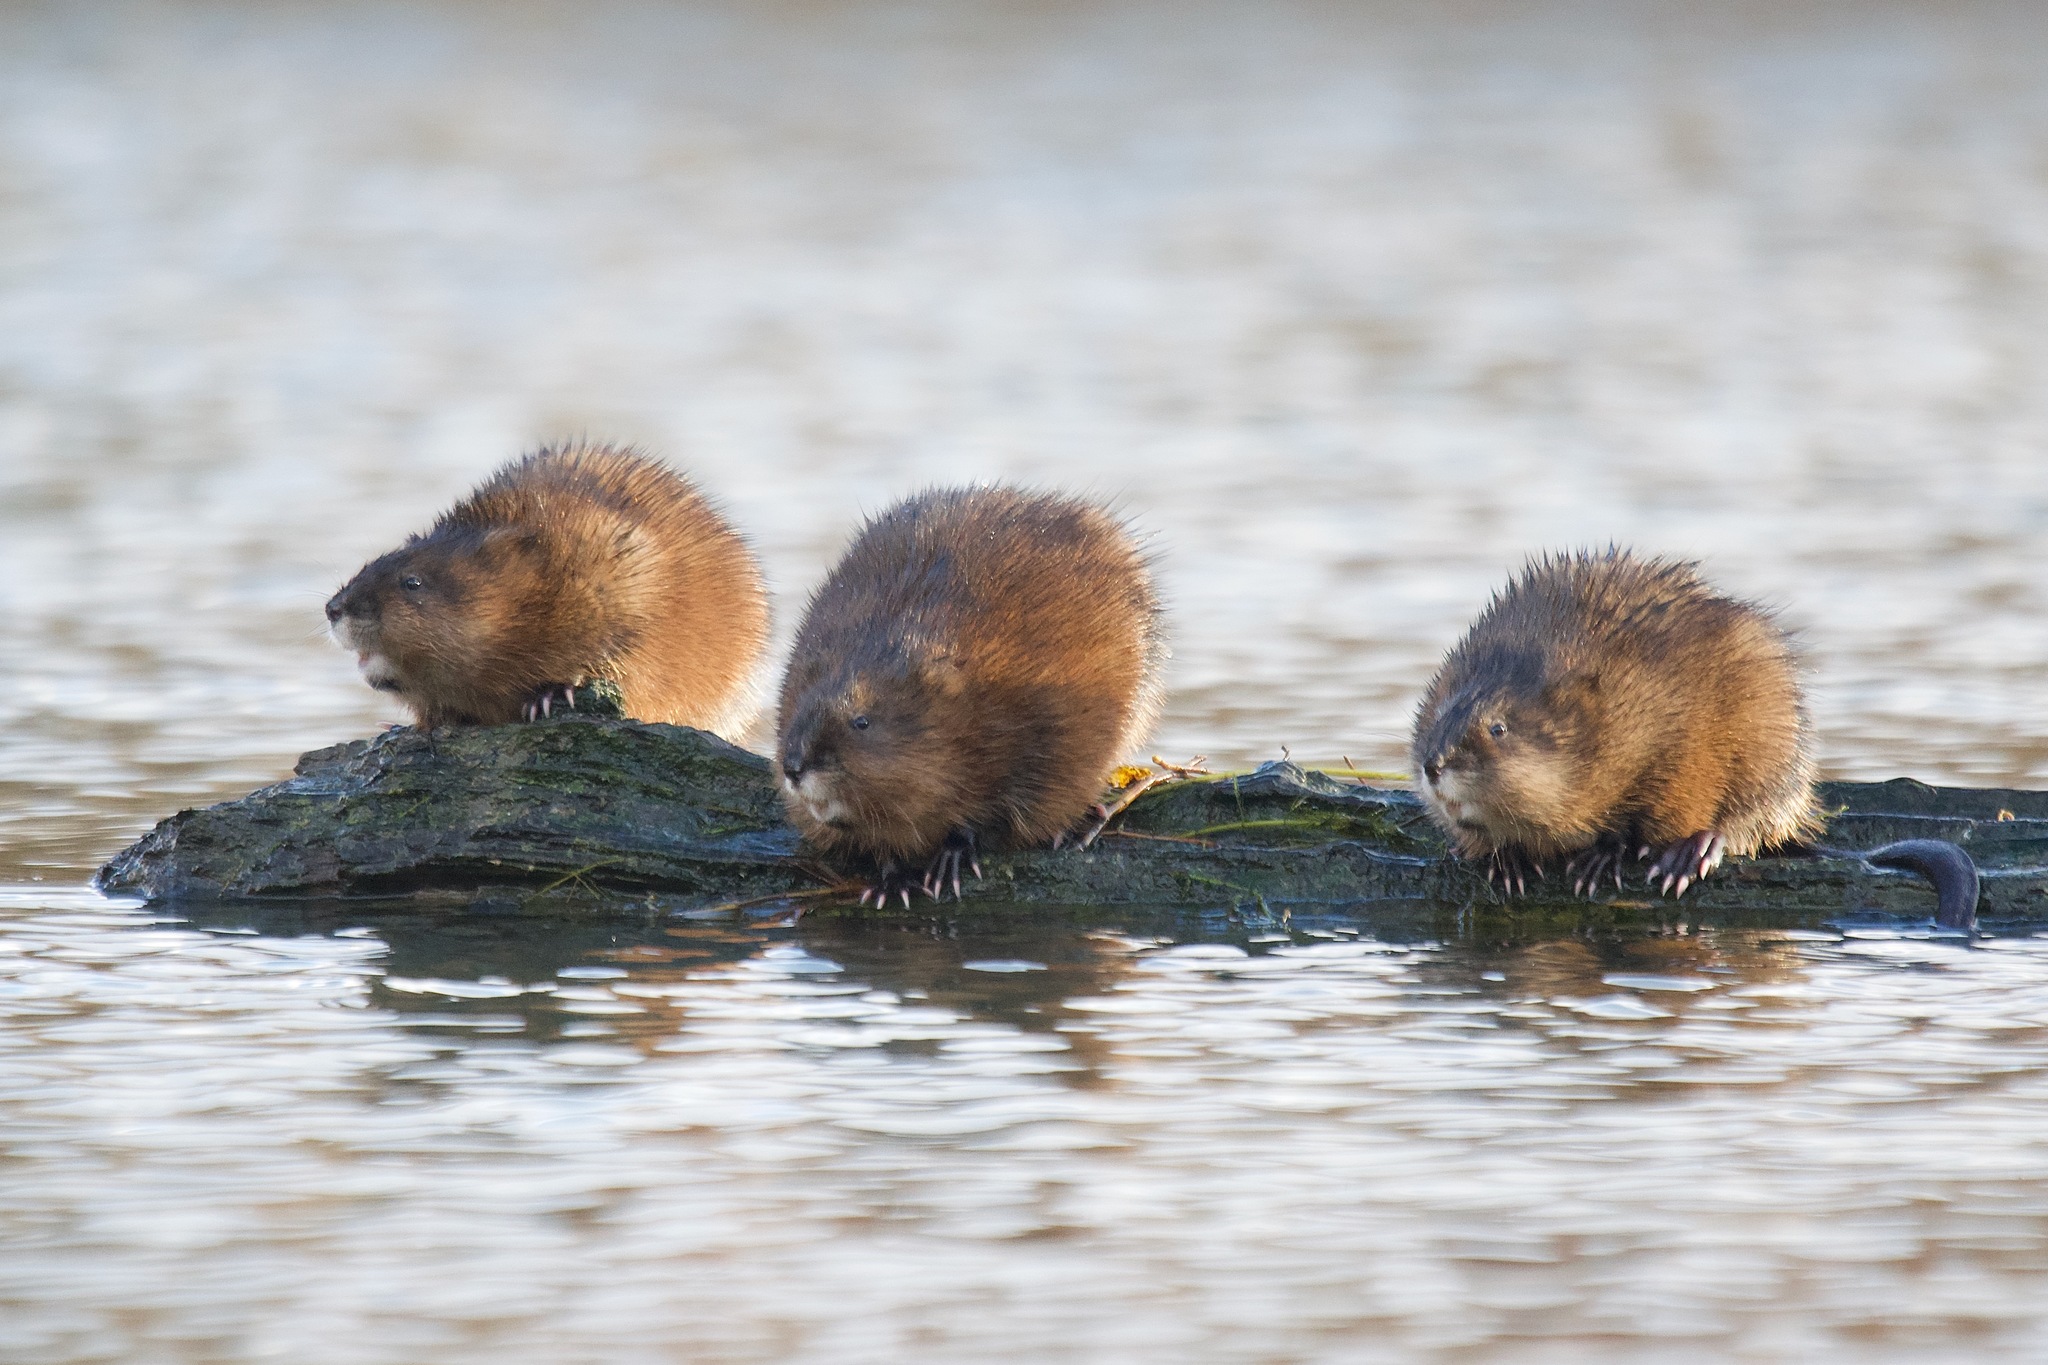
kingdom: Animalia
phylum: Chordata
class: Mammalia
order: Rodentia
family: Cricetidae
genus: Ondatra
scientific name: Ondatra zibethicus
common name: Muskrat
